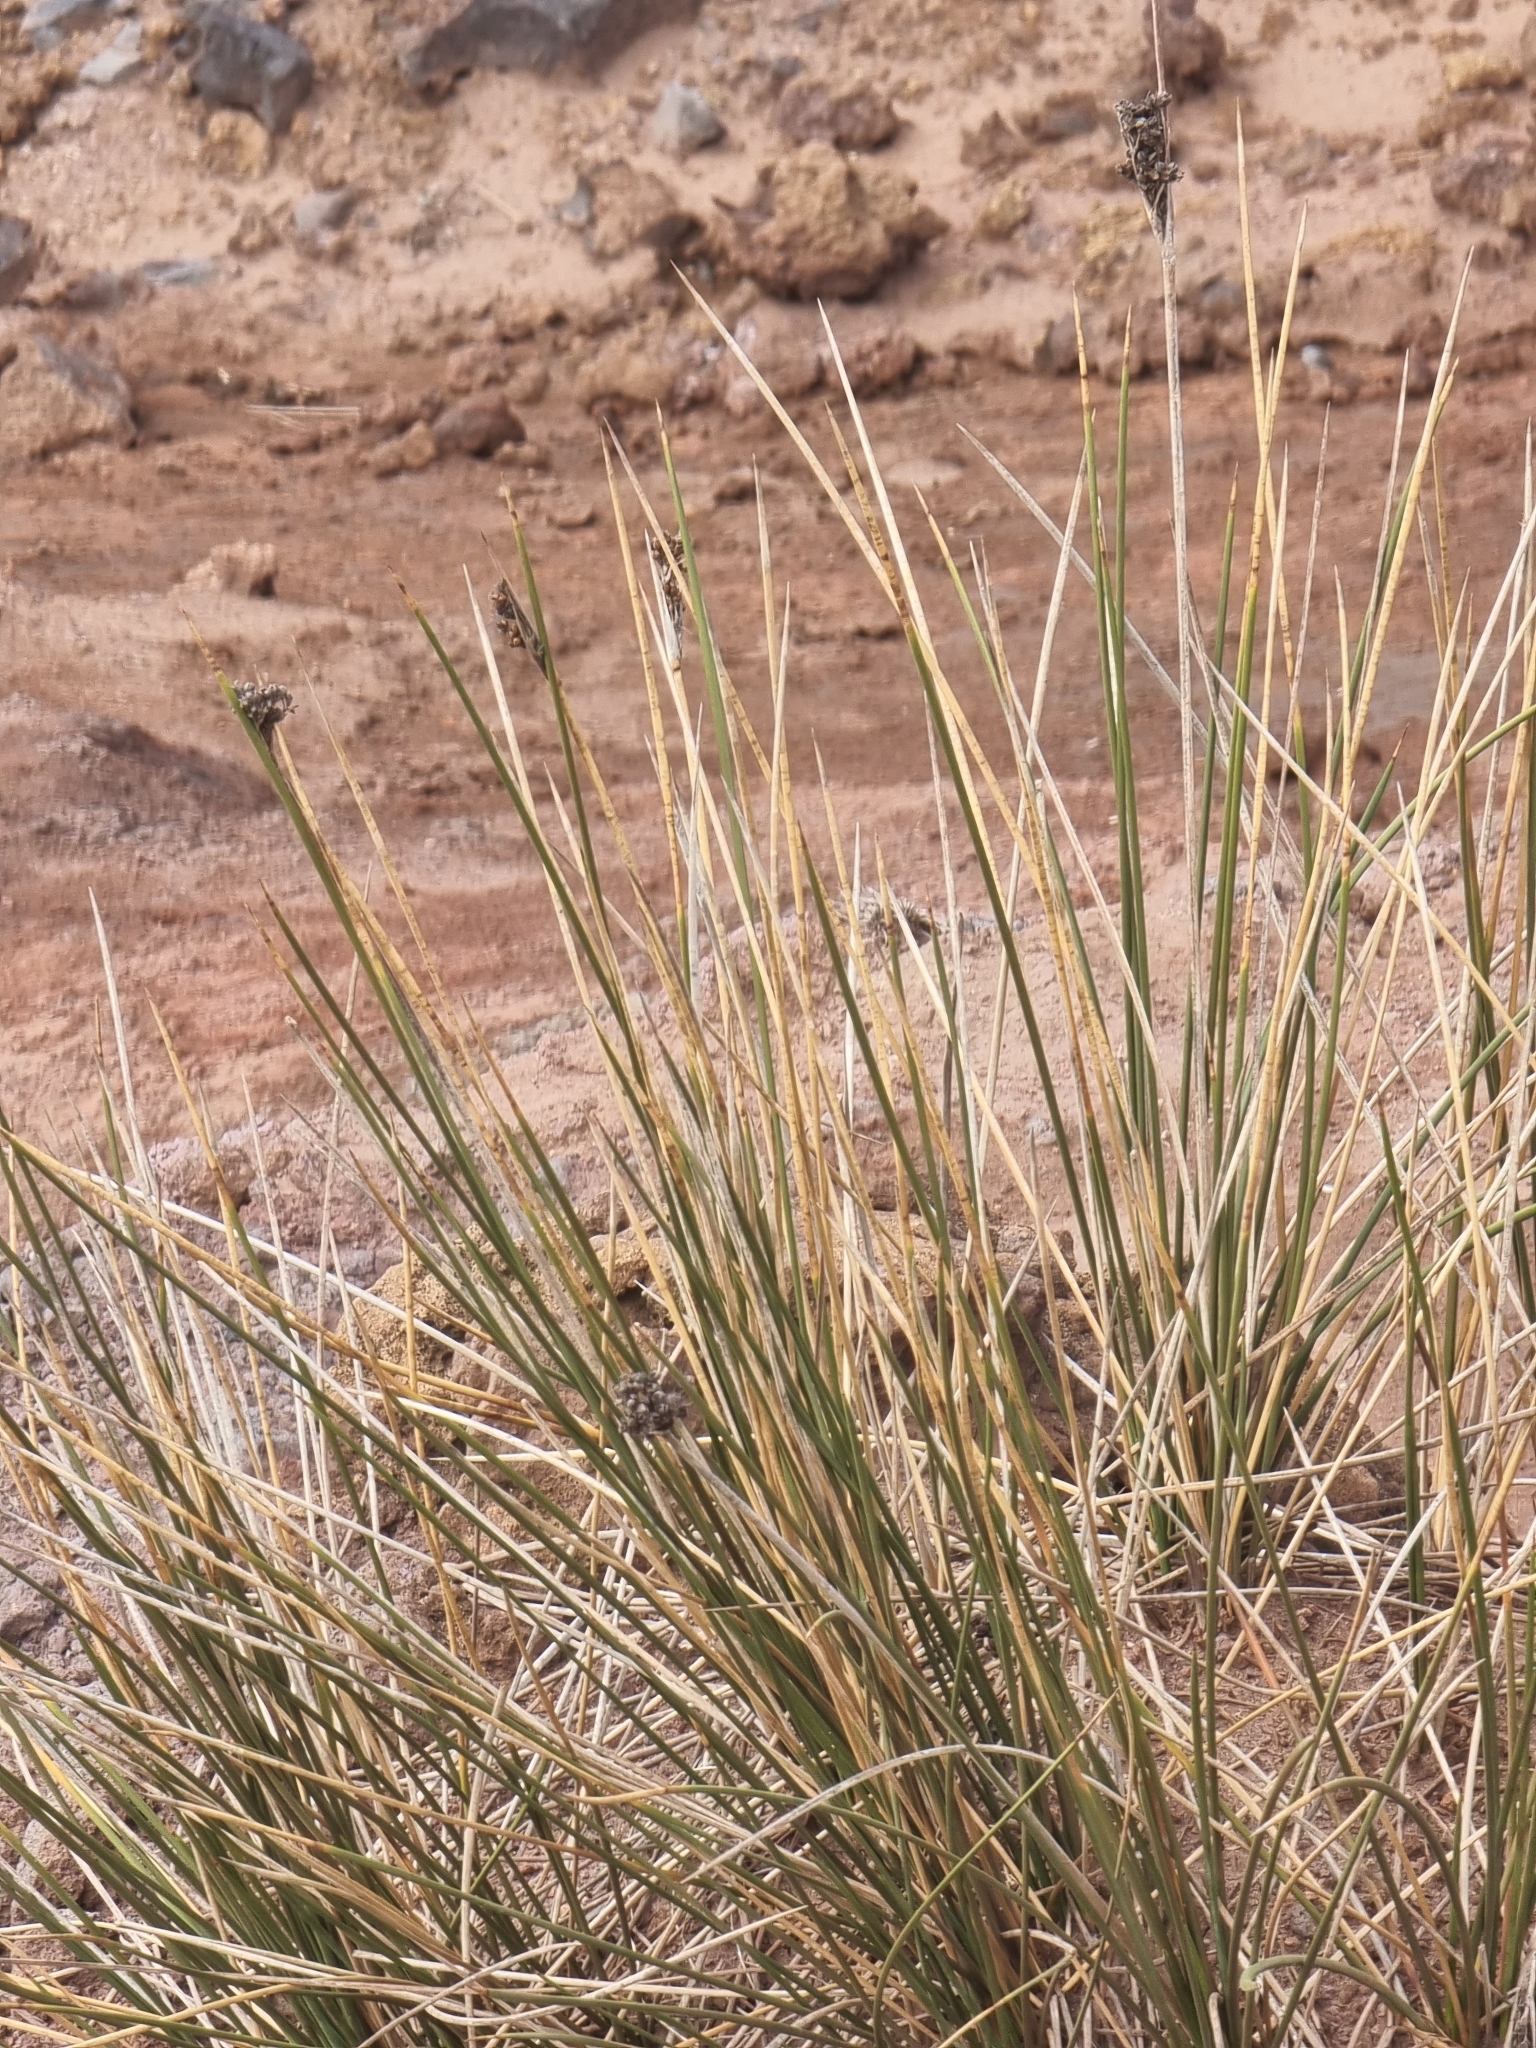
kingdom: Plantae
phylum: Tracheophyta
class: Liliopsida
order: Poales
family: Juncaceae
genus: Juncus
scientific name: Juncus acutus
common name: Sharp rush
